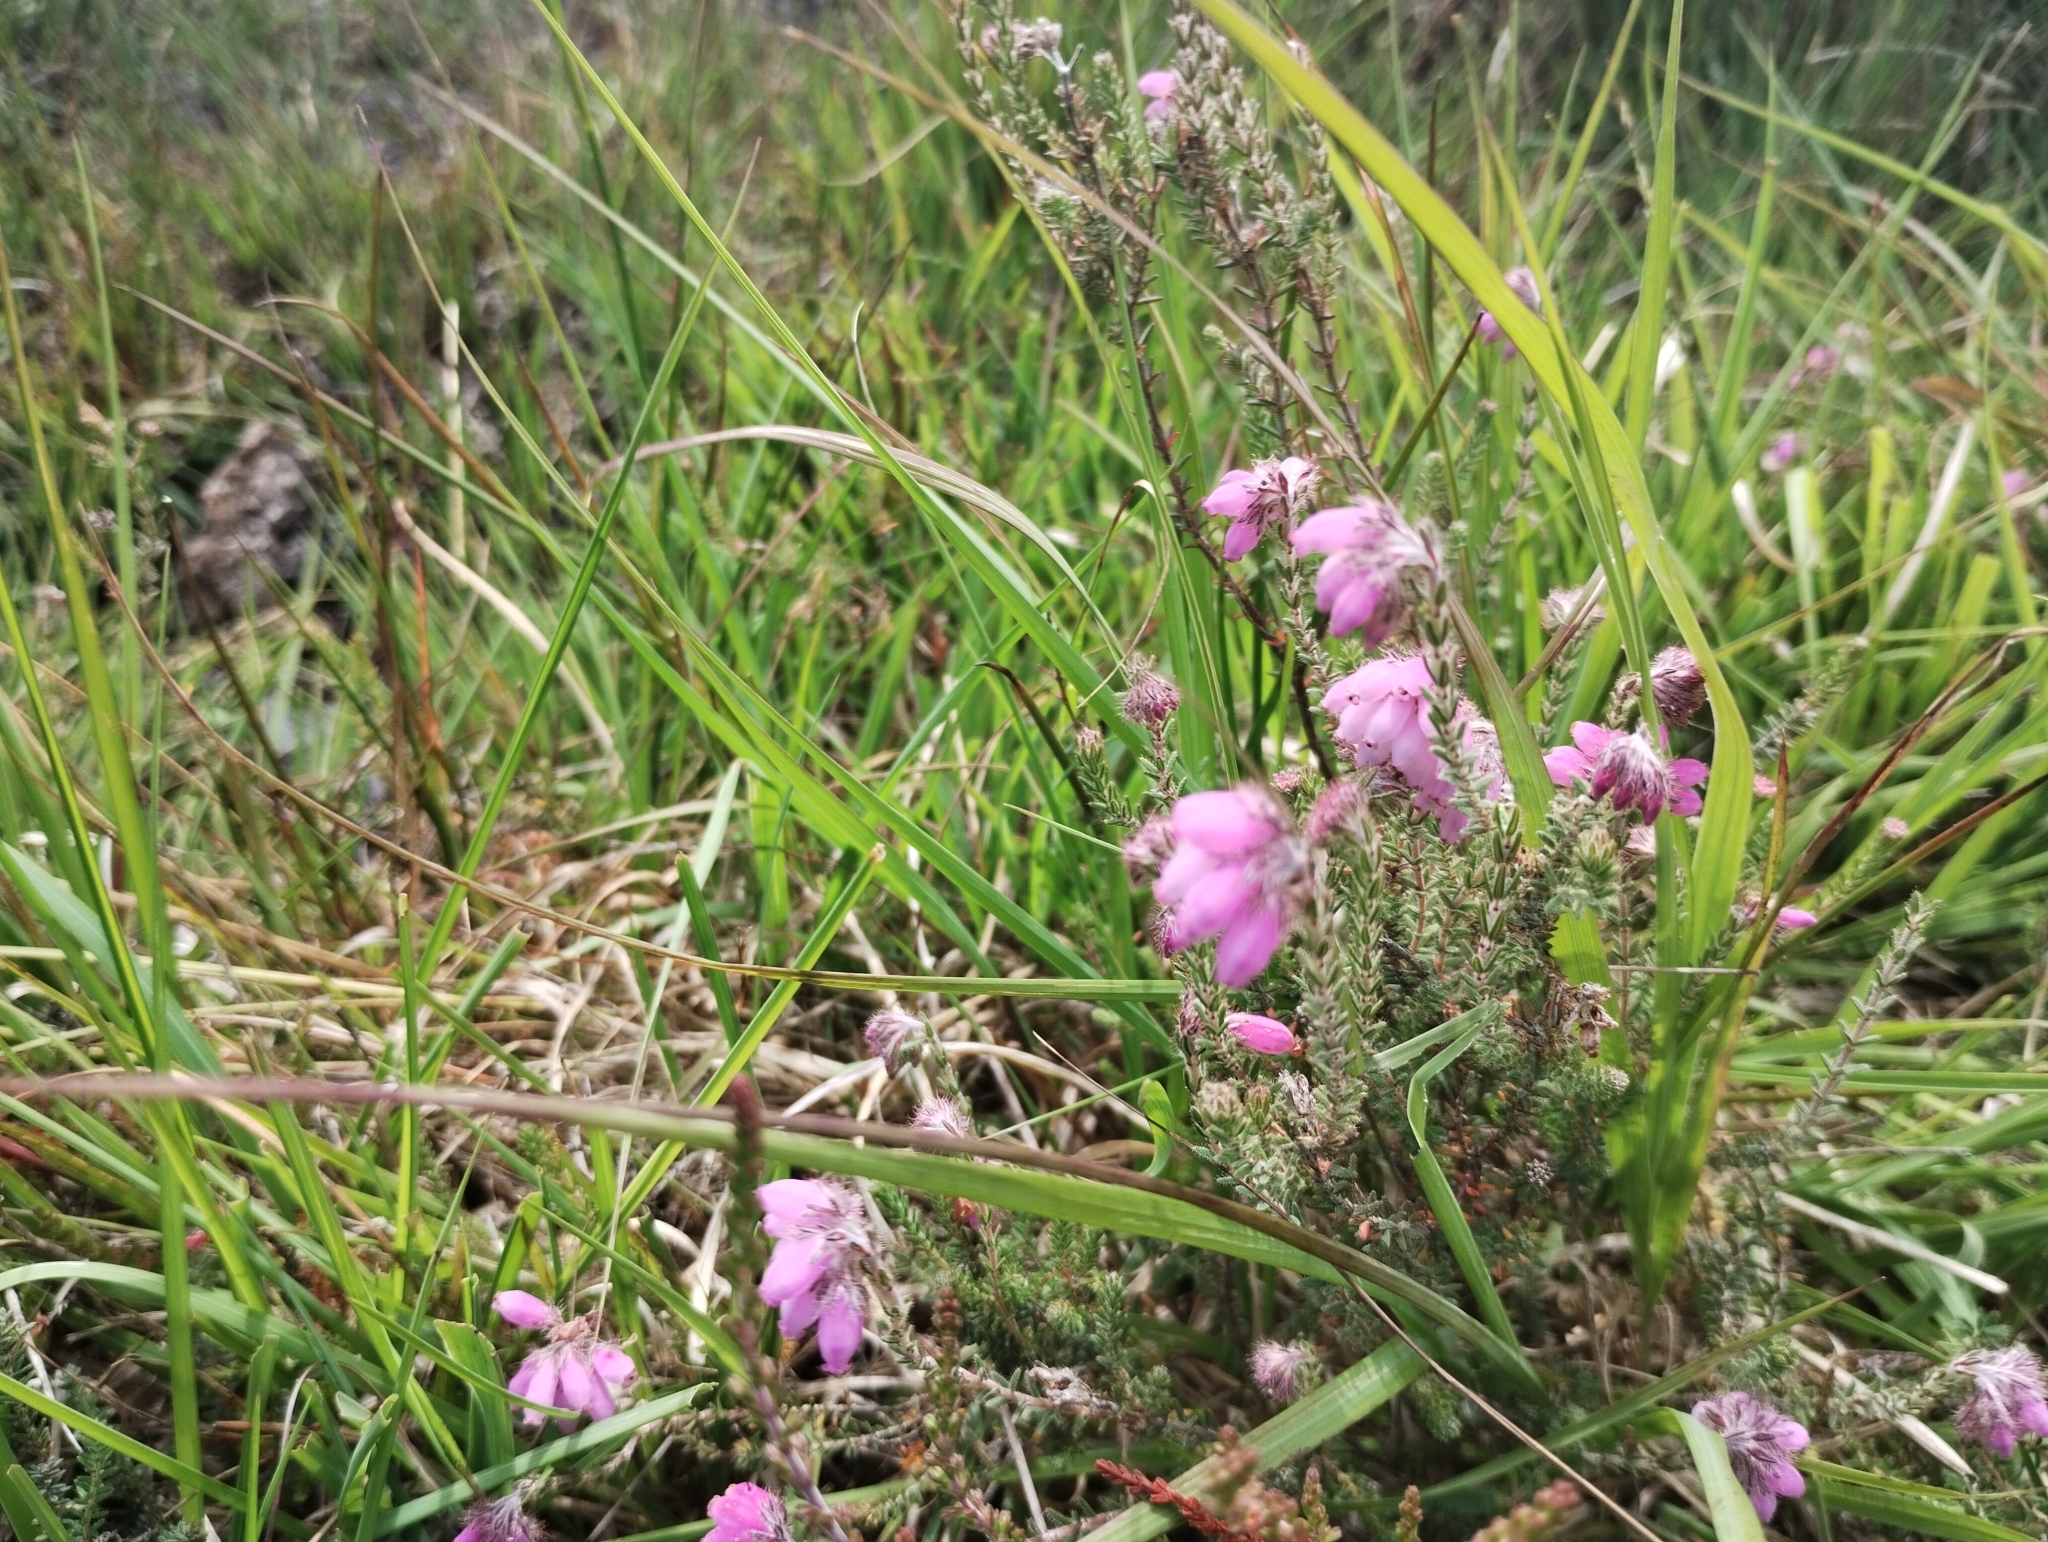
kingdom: Plantae
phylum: Tracheophyta
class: Magnoliopsida
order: Ericales
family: Ericaceae
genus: Erica
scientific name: Erica tetralix
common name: Cross-leaved heath
